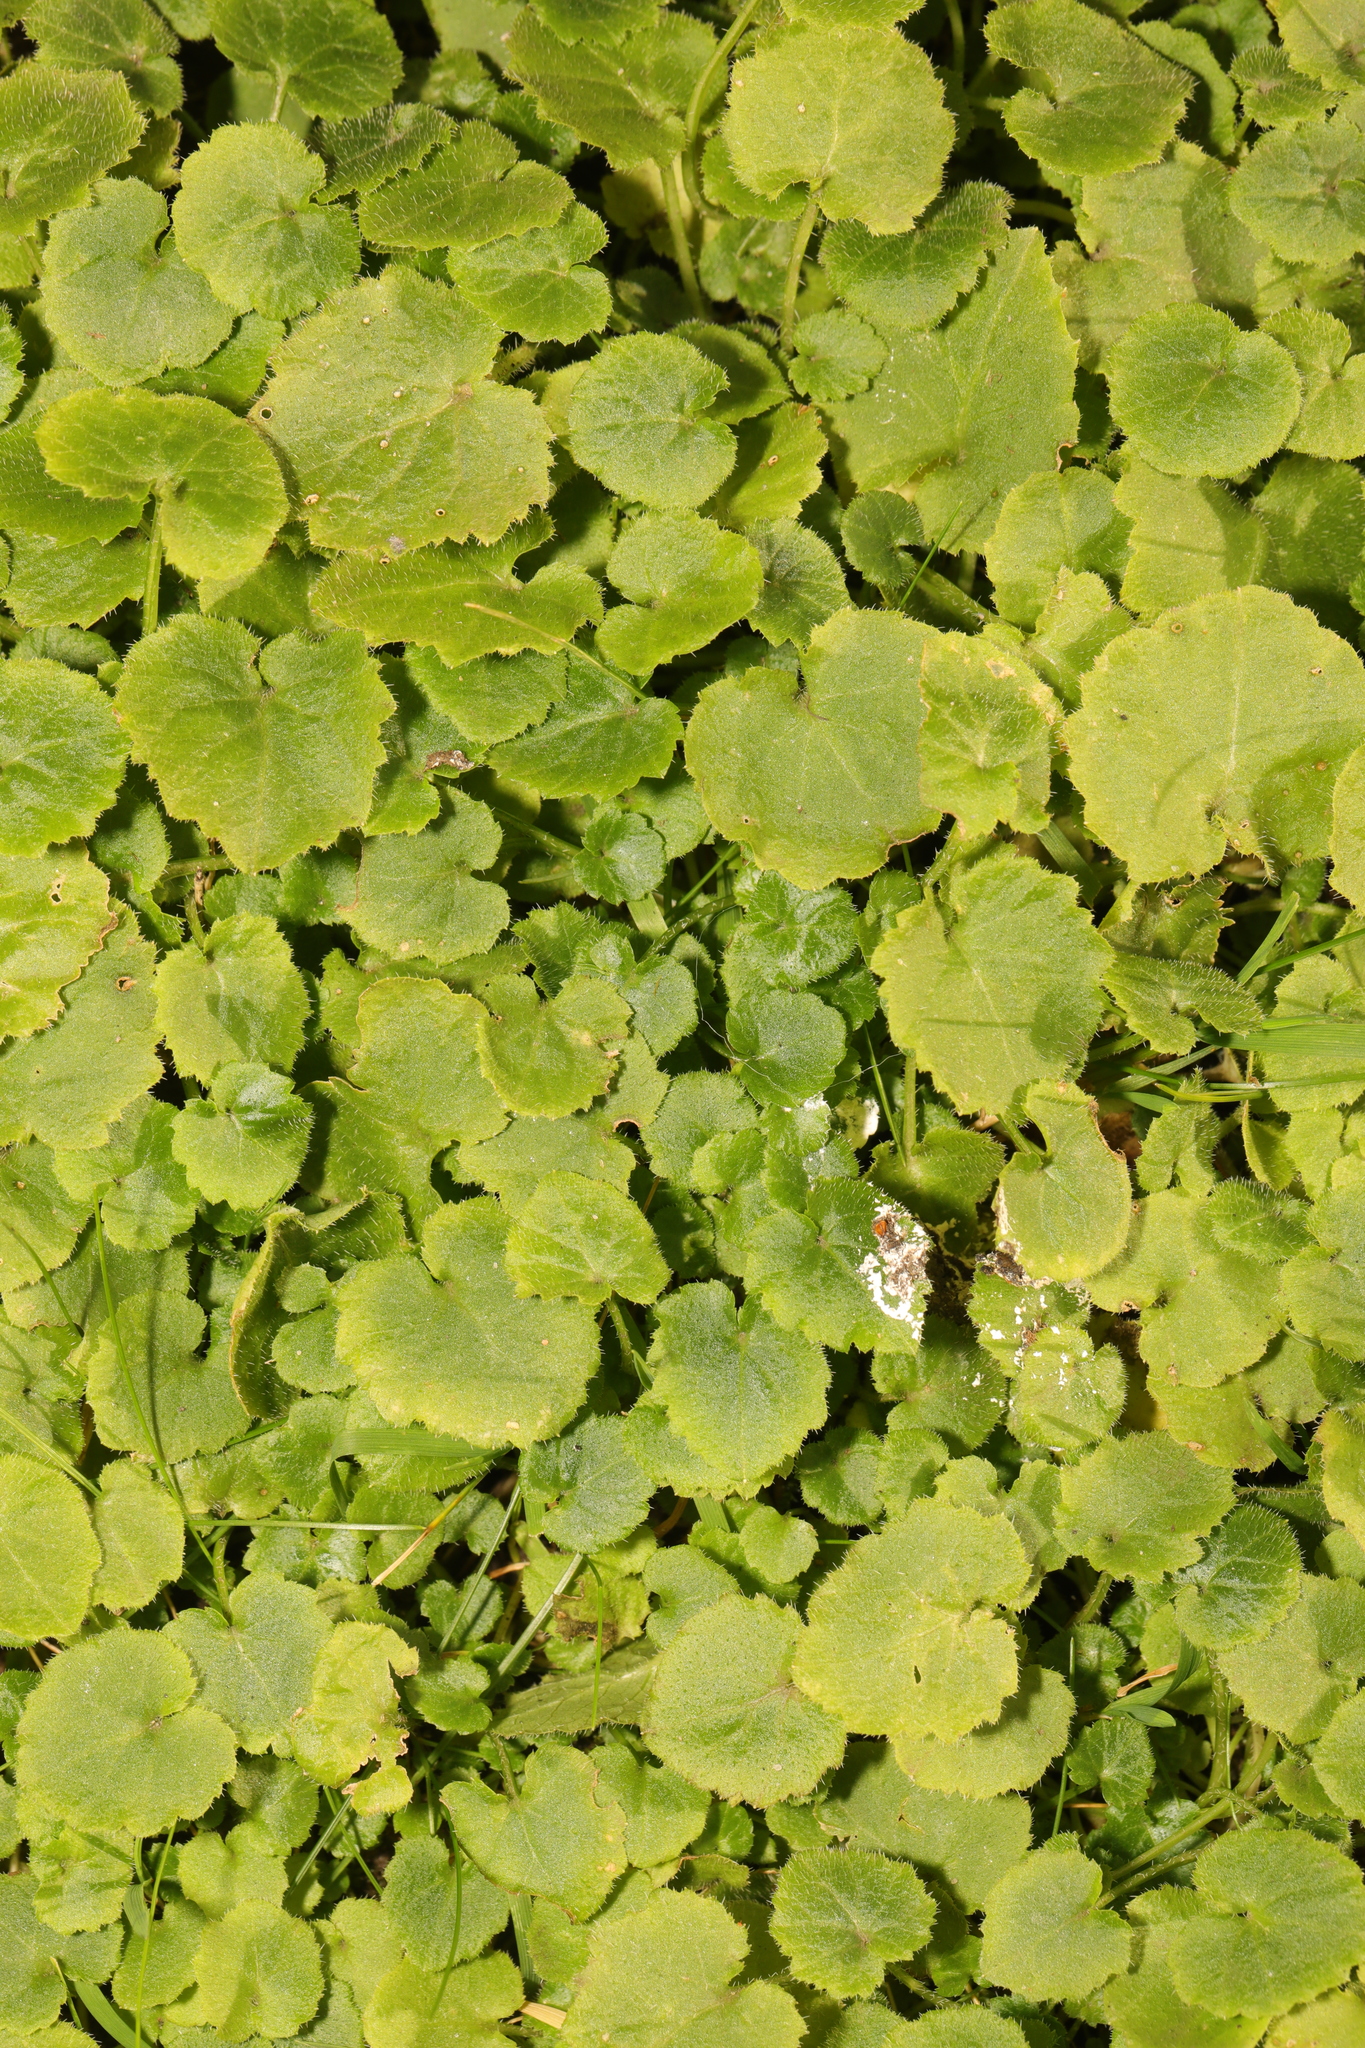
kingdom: Plantae
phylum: Tracheophyta
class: Magnoliopsida
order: Asterales
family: Campanulaceae
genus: Campanula
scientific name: Campanula poscharskyana
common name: Trailing bellflower
